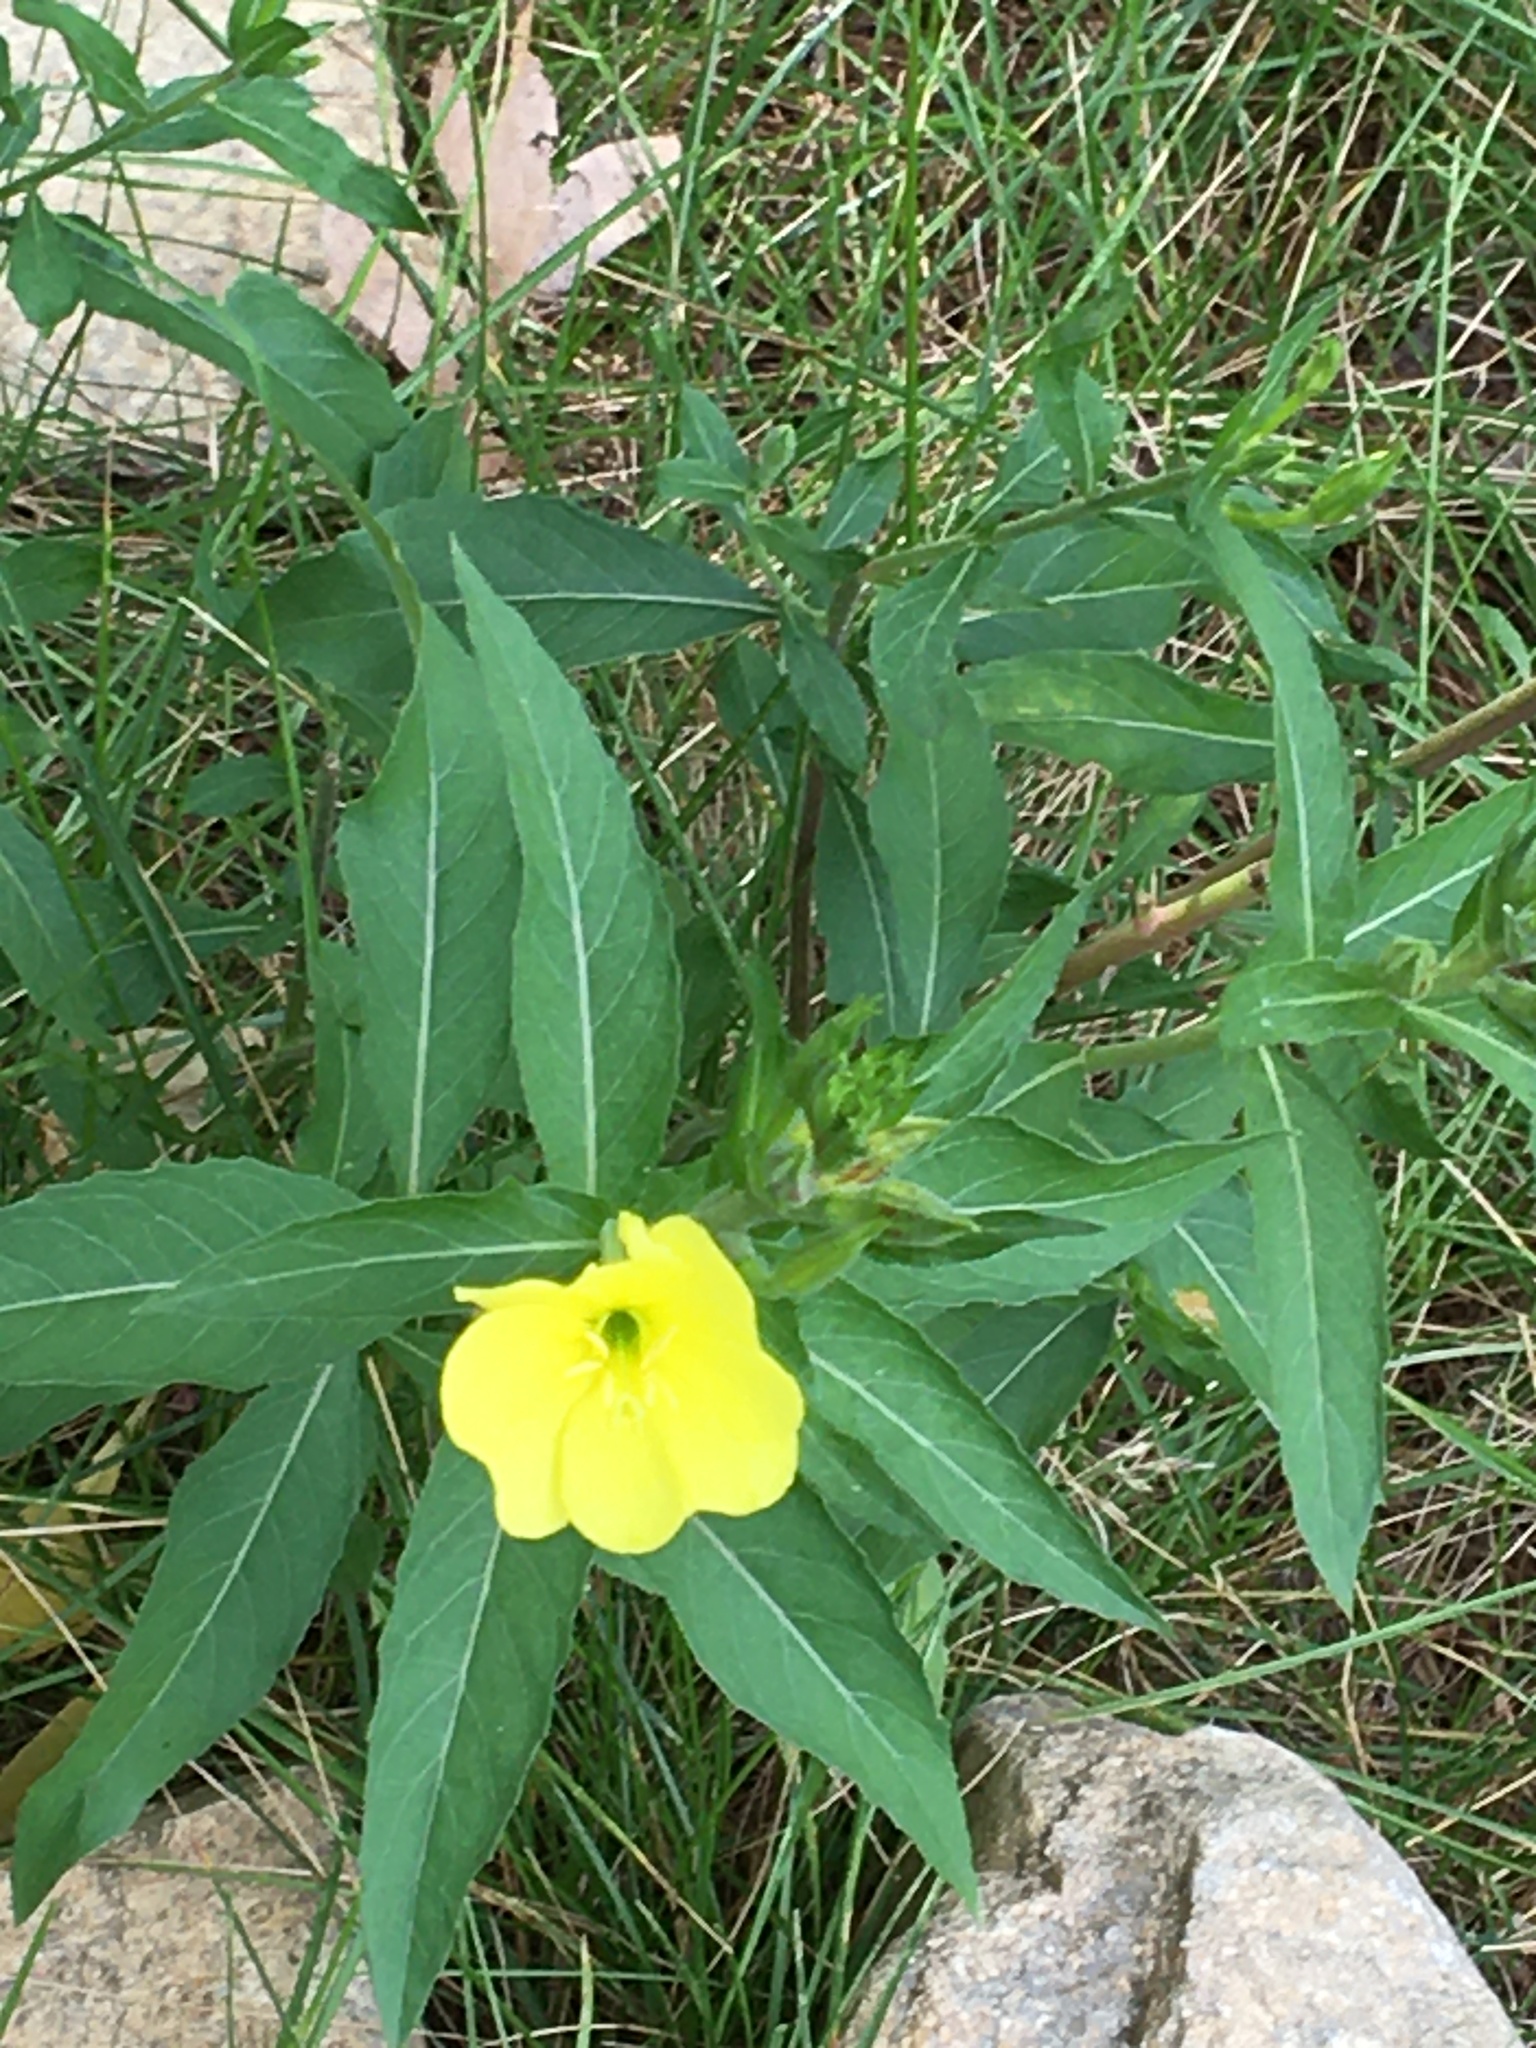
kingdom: Plantae
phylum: Tracheophyta
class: Magnoliopsida
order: Myrtales
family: Onagraceae
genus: Oenothera
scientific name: Oenothera biennis
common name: Common evening-primrose
